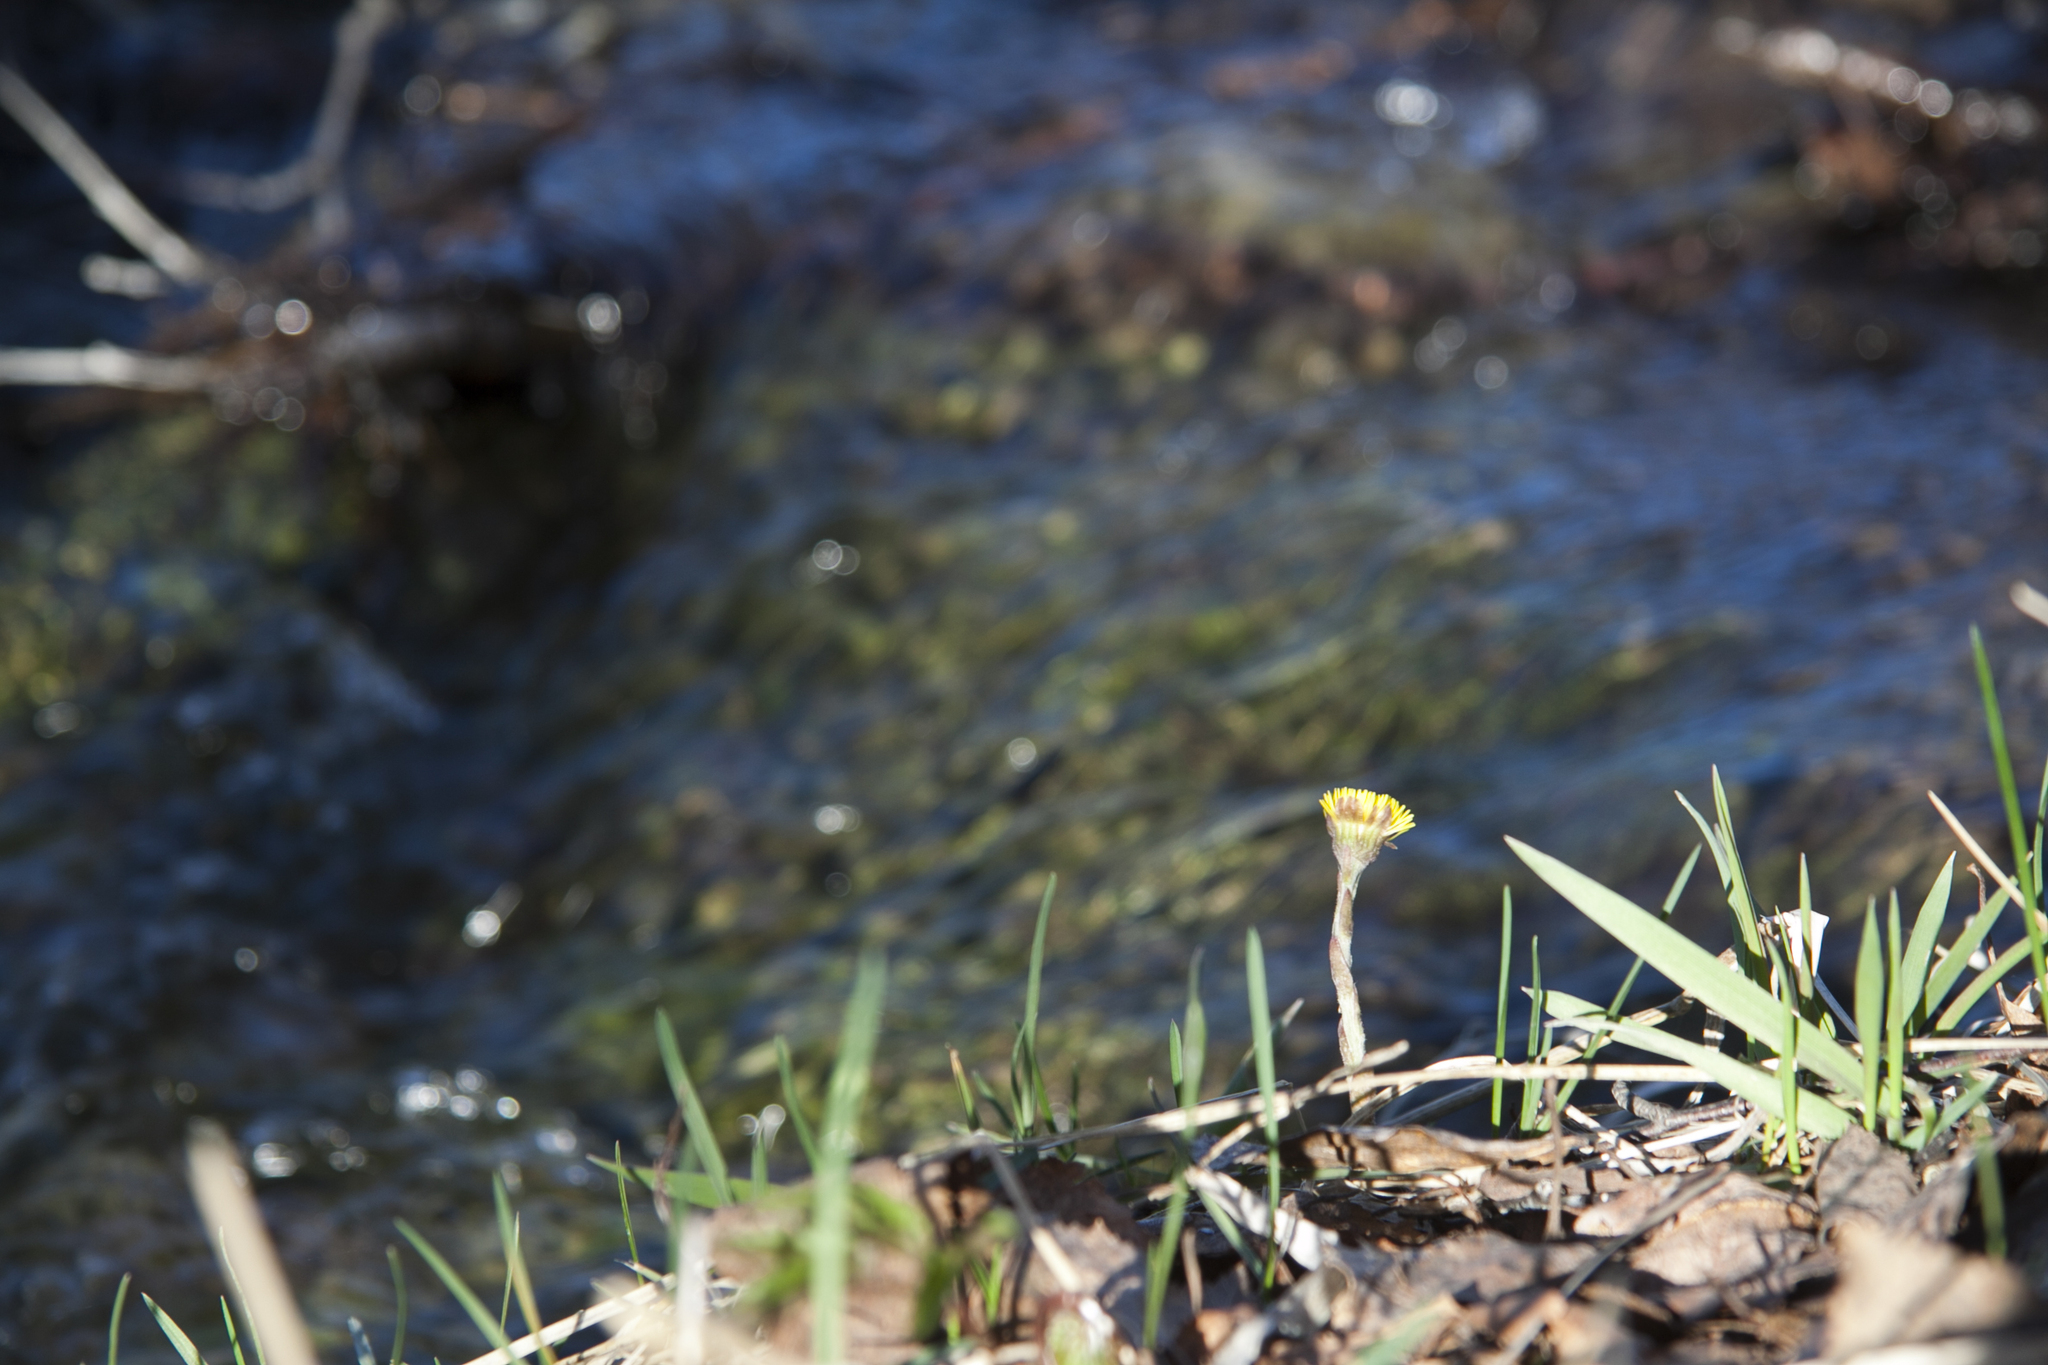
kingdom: Plantae
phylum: Tracheophyta
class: Magnoliopsida
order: Asterales
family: Asteraceae
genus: Tussilago
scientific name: Tussilago farfara
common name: Coltsfoot
